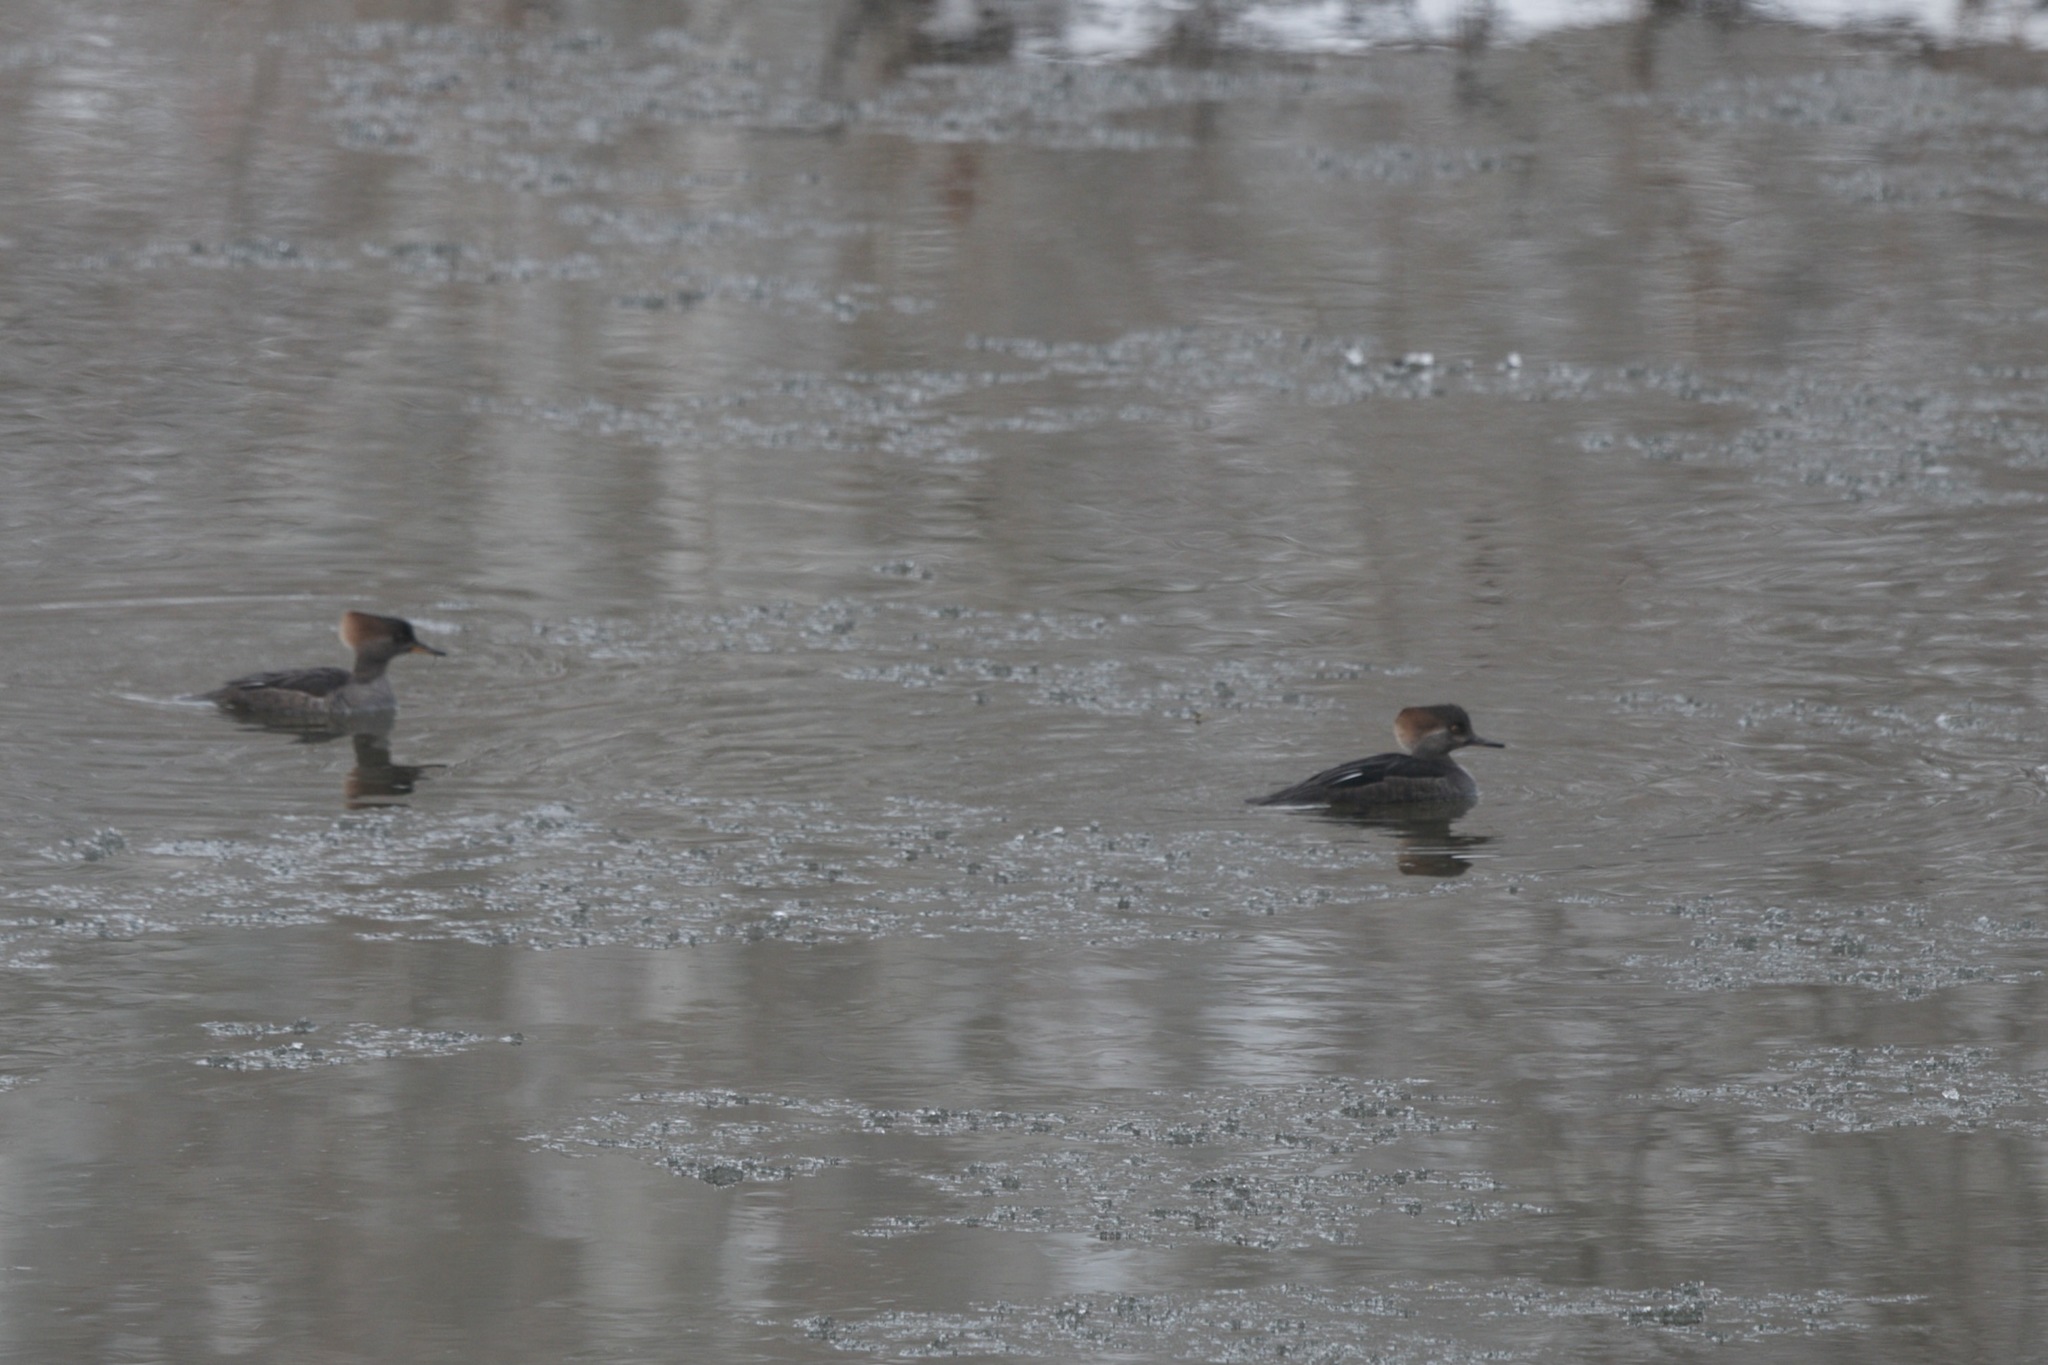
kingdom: Animalia
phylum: Chordata
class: Aves
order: Anseriformes
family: Anatidae
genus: Lophodytes
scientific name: Lophodytes cucullatus
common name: Hooded merganser
